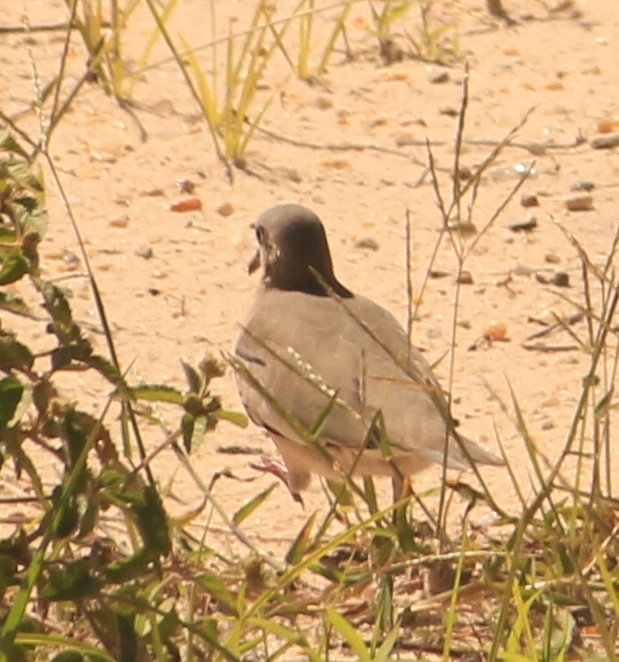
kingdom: Animalia
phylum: Chordata
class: Aves
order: Columbiformes
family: Columbidae
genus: Columbina
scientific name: Columbina picui
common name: Picui ground dove
